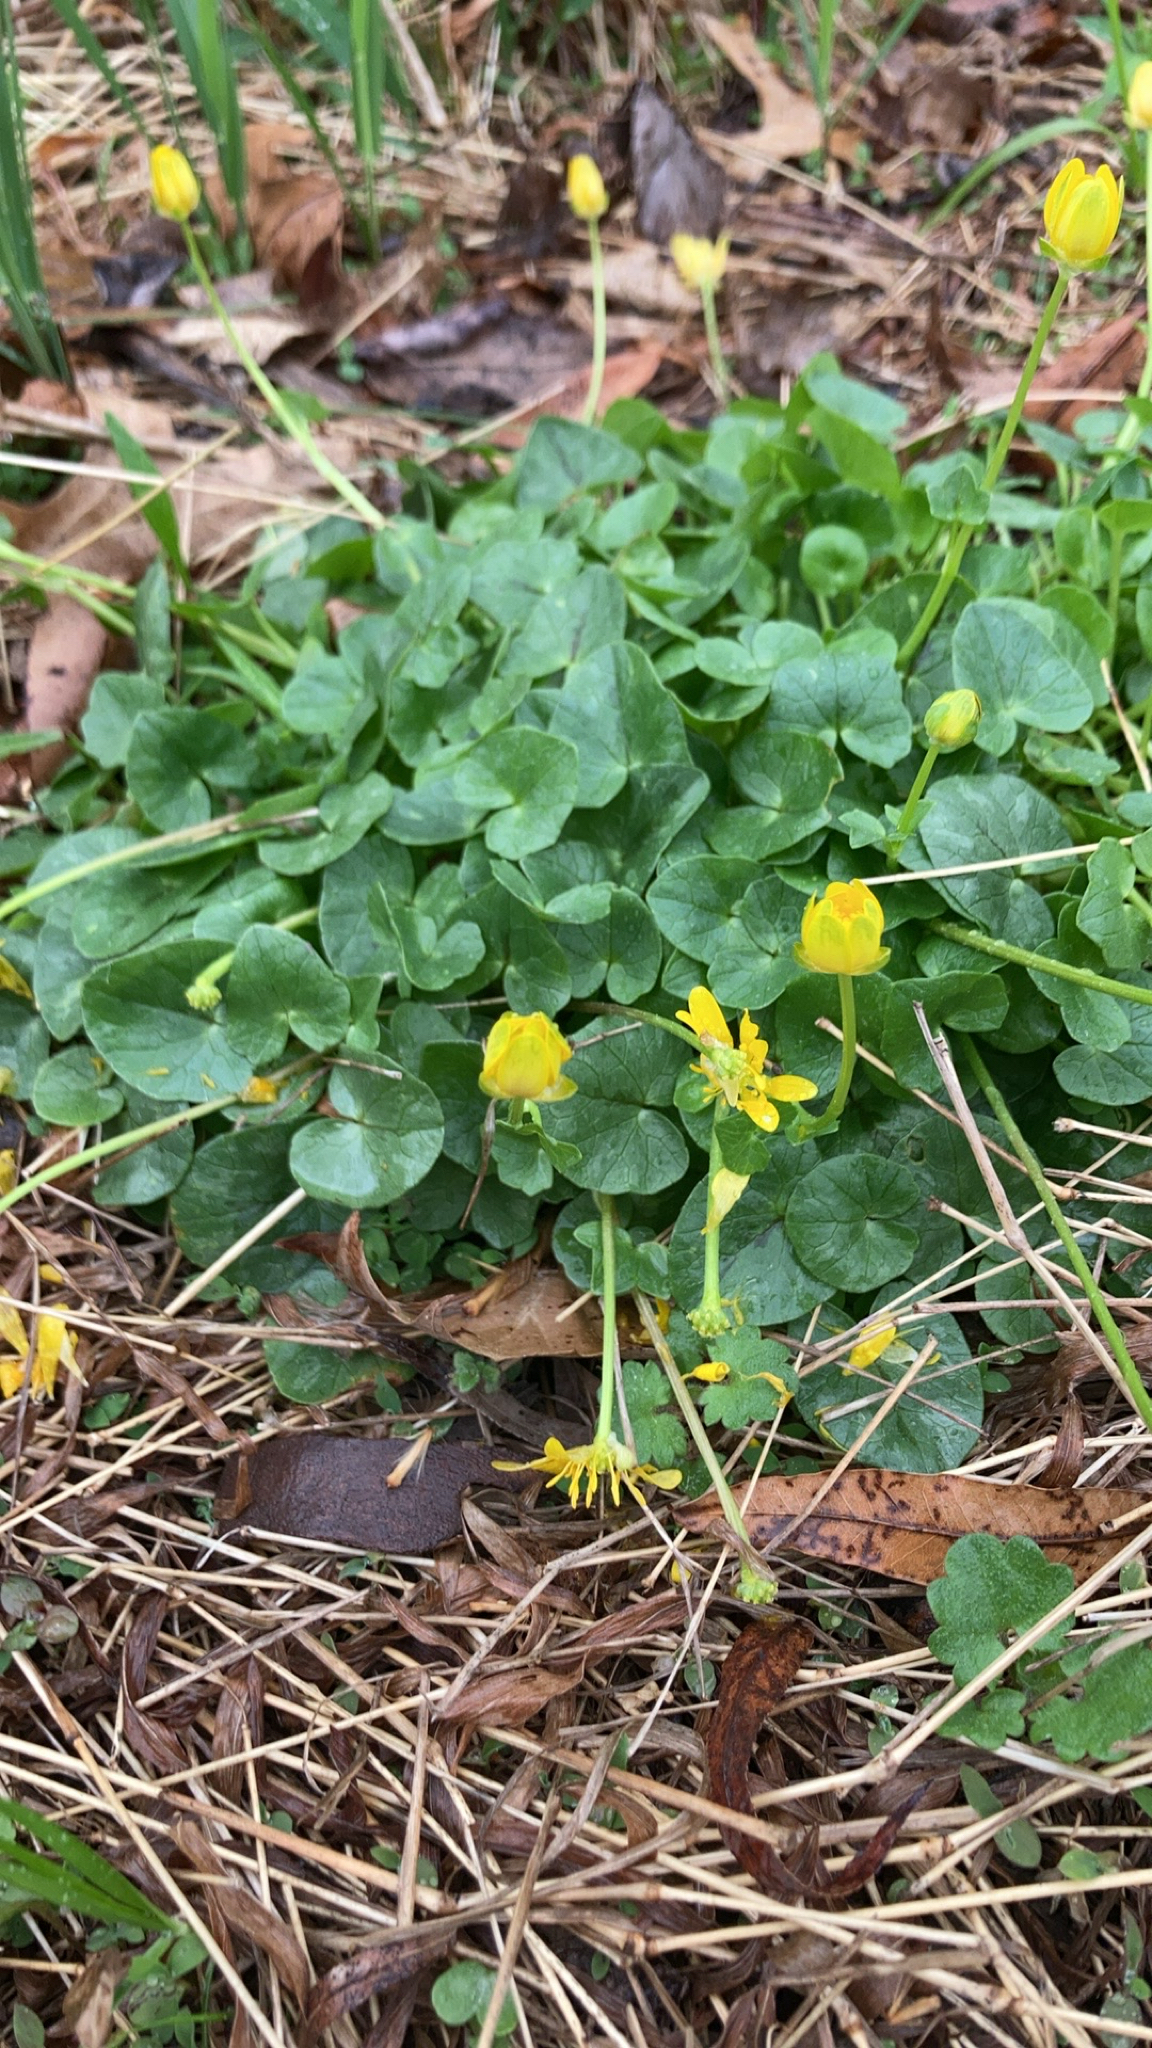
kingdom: Plantae
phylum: Tracheophyta
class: Magnoliopsida
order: Ranunculales
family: Ranunculaceae
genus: Ficaria
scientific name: Ficaria verna
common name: Lesser celandine
